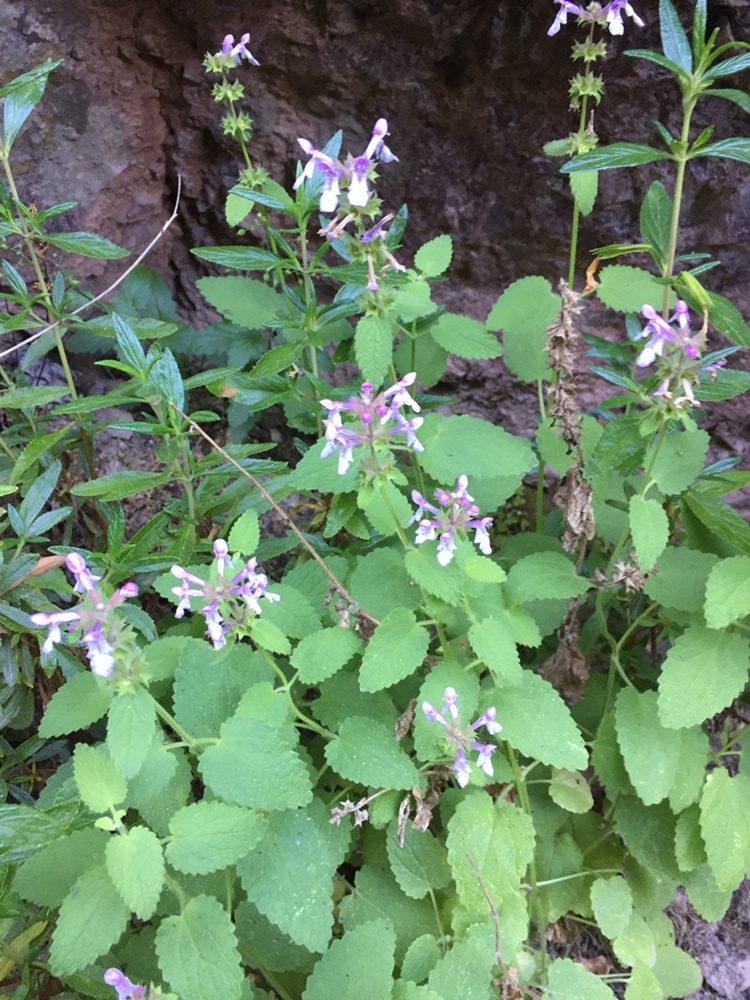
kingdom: Plantae
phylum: Tracheophyta
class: Magnoliopsida
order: Lamiales
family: Lamiaceae
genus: Stachys
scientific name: Stachys bullata
